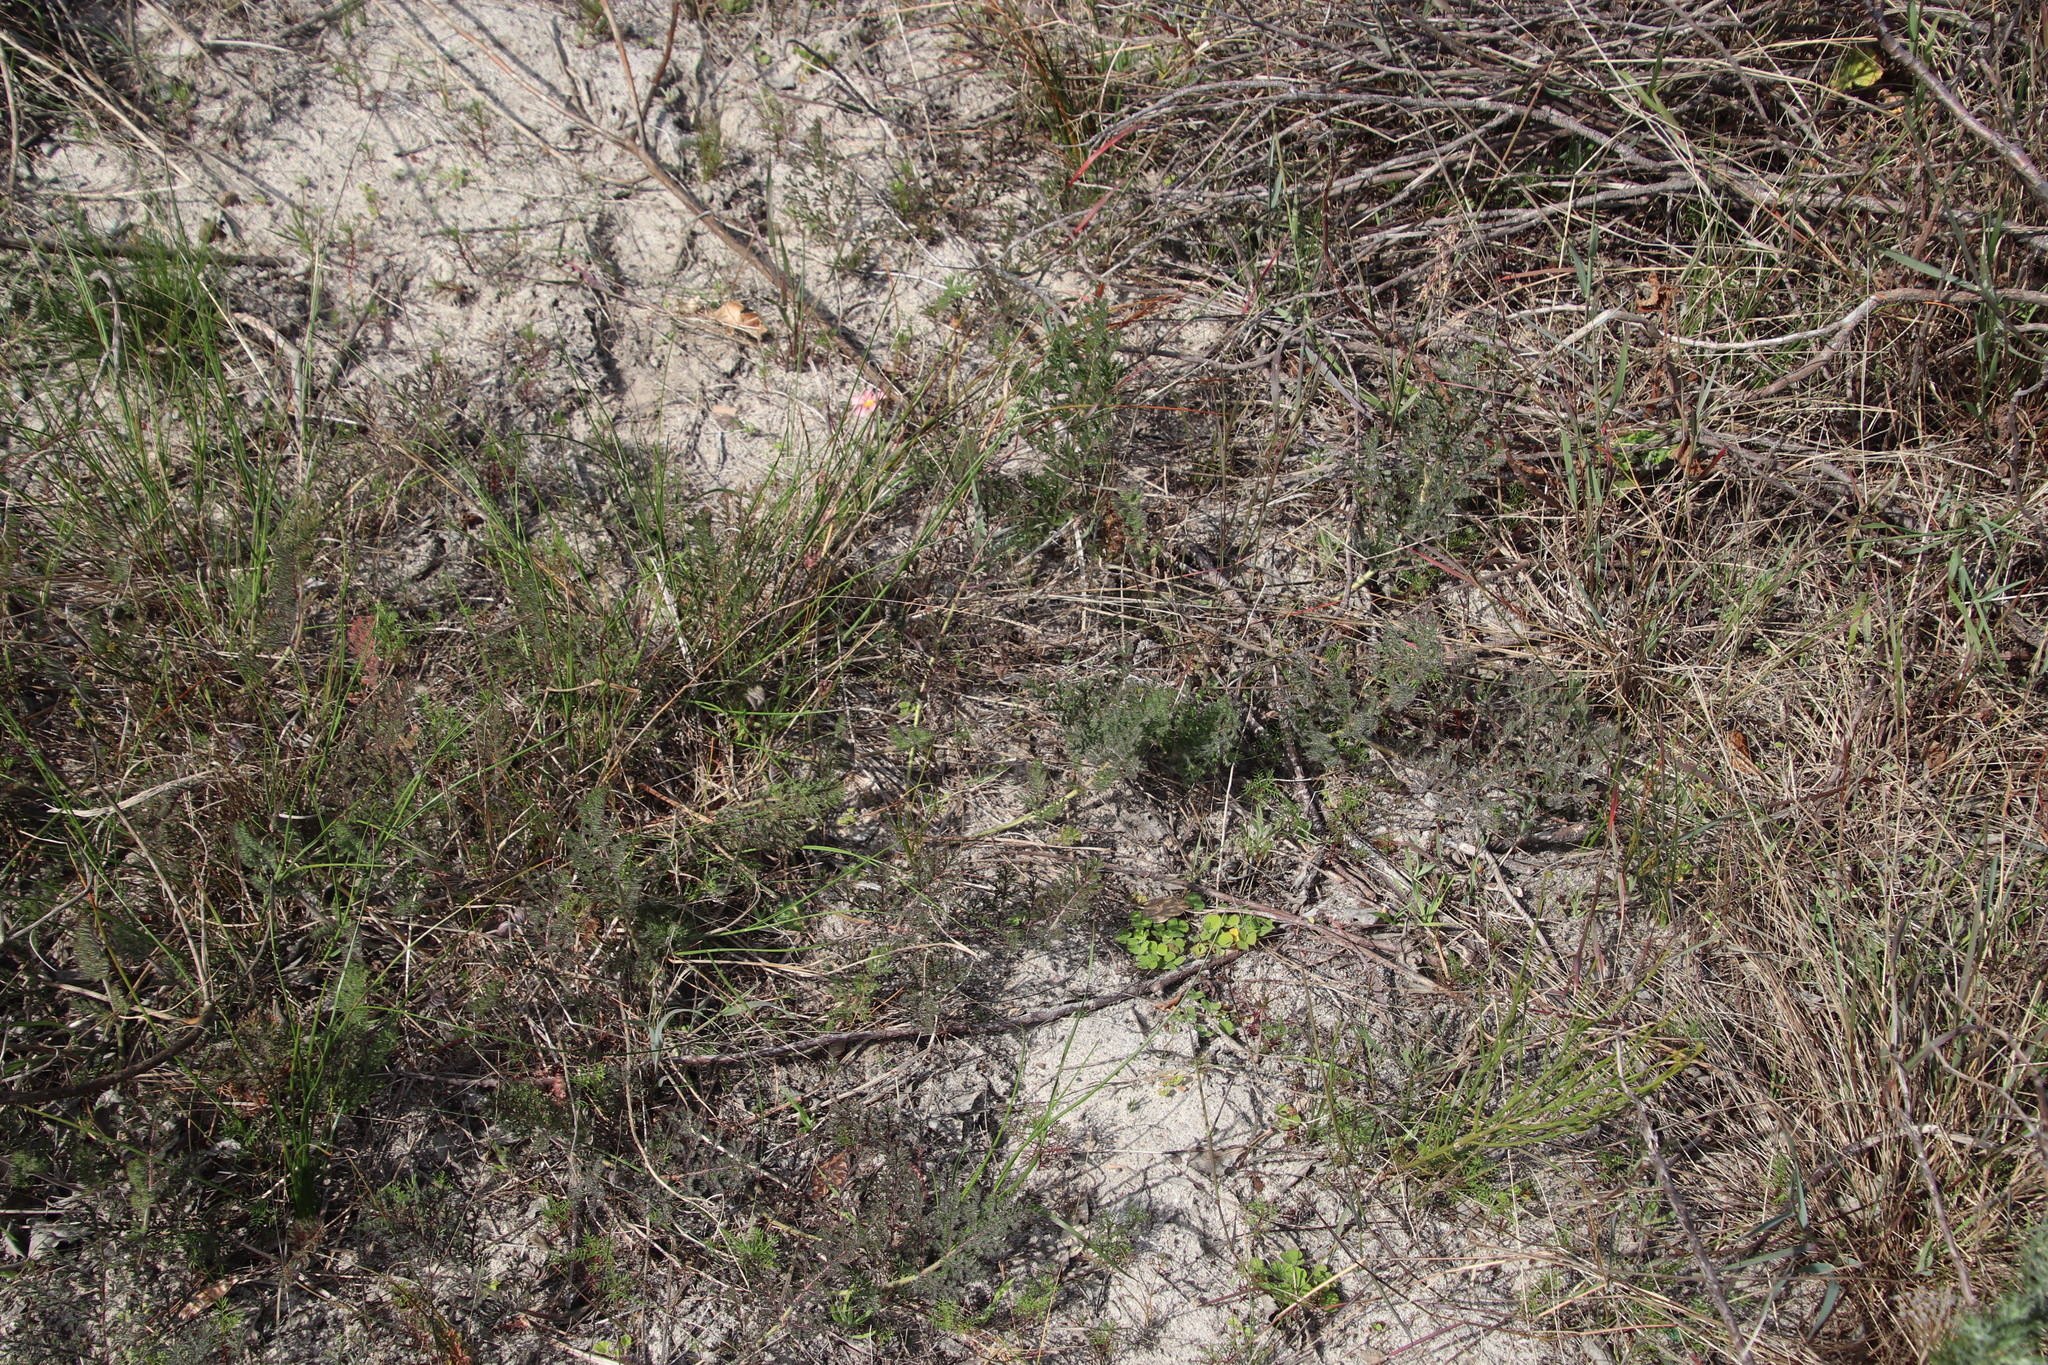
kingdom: Plantae
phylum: Tracheophyta
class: Magnoliopsida
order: Geraniales
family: Geraniaceae
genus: Pelargonium
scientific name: Pelargonium triste
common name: Night-scent pelargonium
